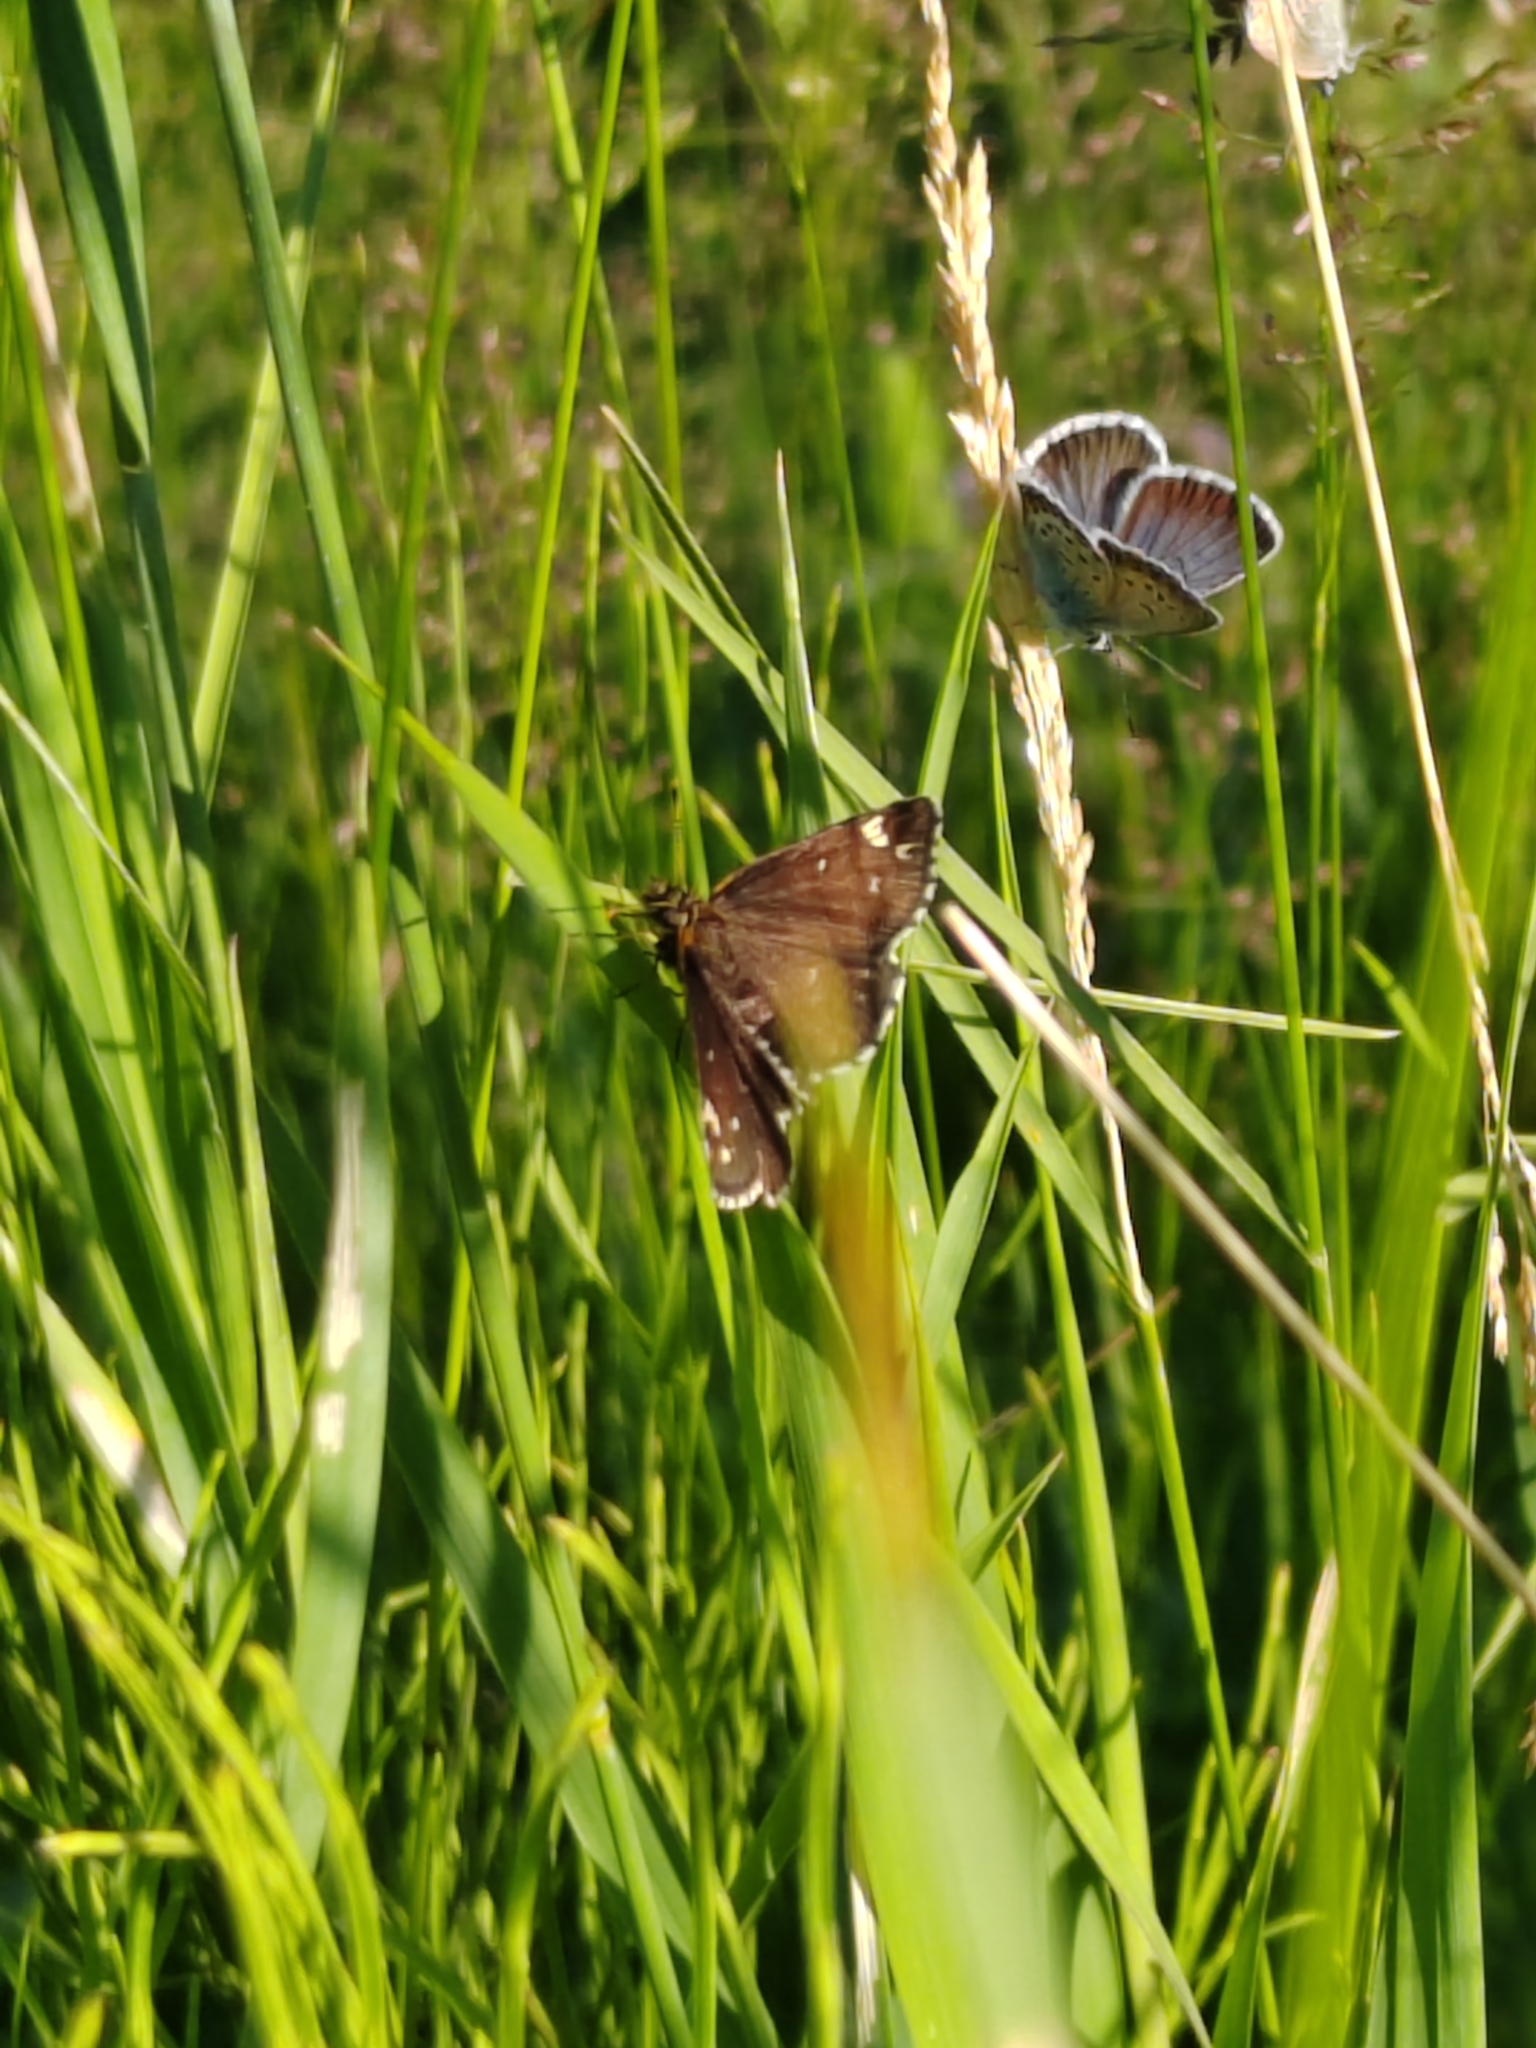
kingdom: Animalia
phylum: Arthropoda
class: Insecta
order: Lepidoptera
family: Hesperiidae
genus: Heteropterus
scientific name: Heteropterus morpheus
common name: Large chequered skipper
